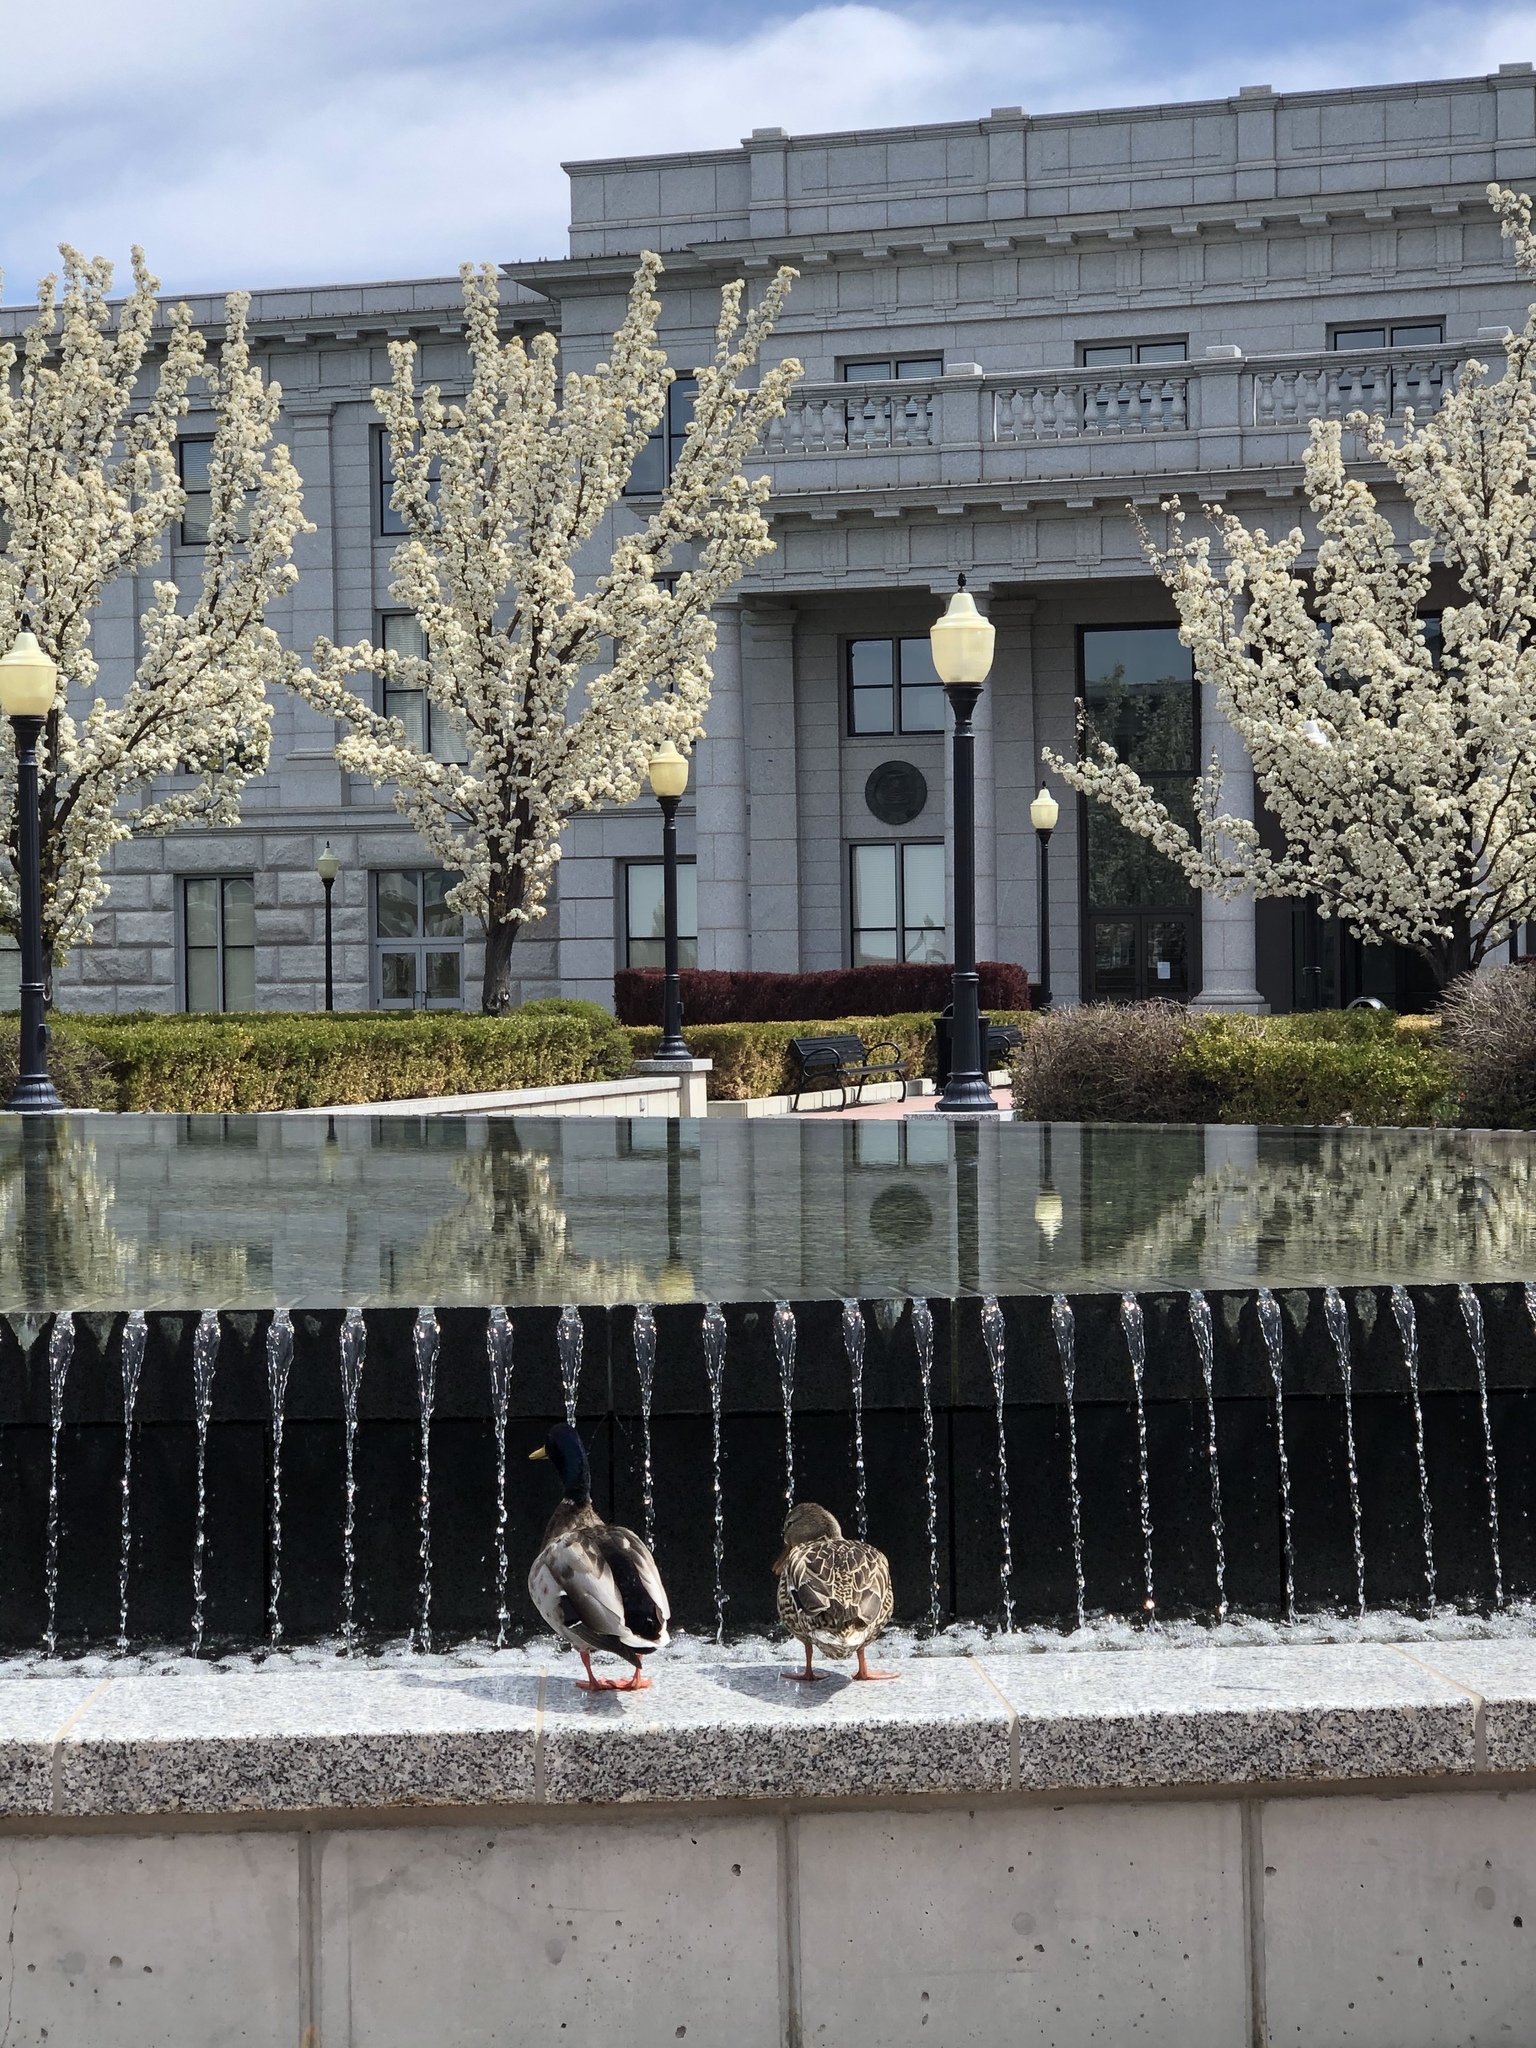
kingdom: Animalia
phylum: Chordata
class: Aves
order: Anseriformes
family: Anatidae
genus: Anas
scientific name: Anas platyrhynchos
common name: Mallard
